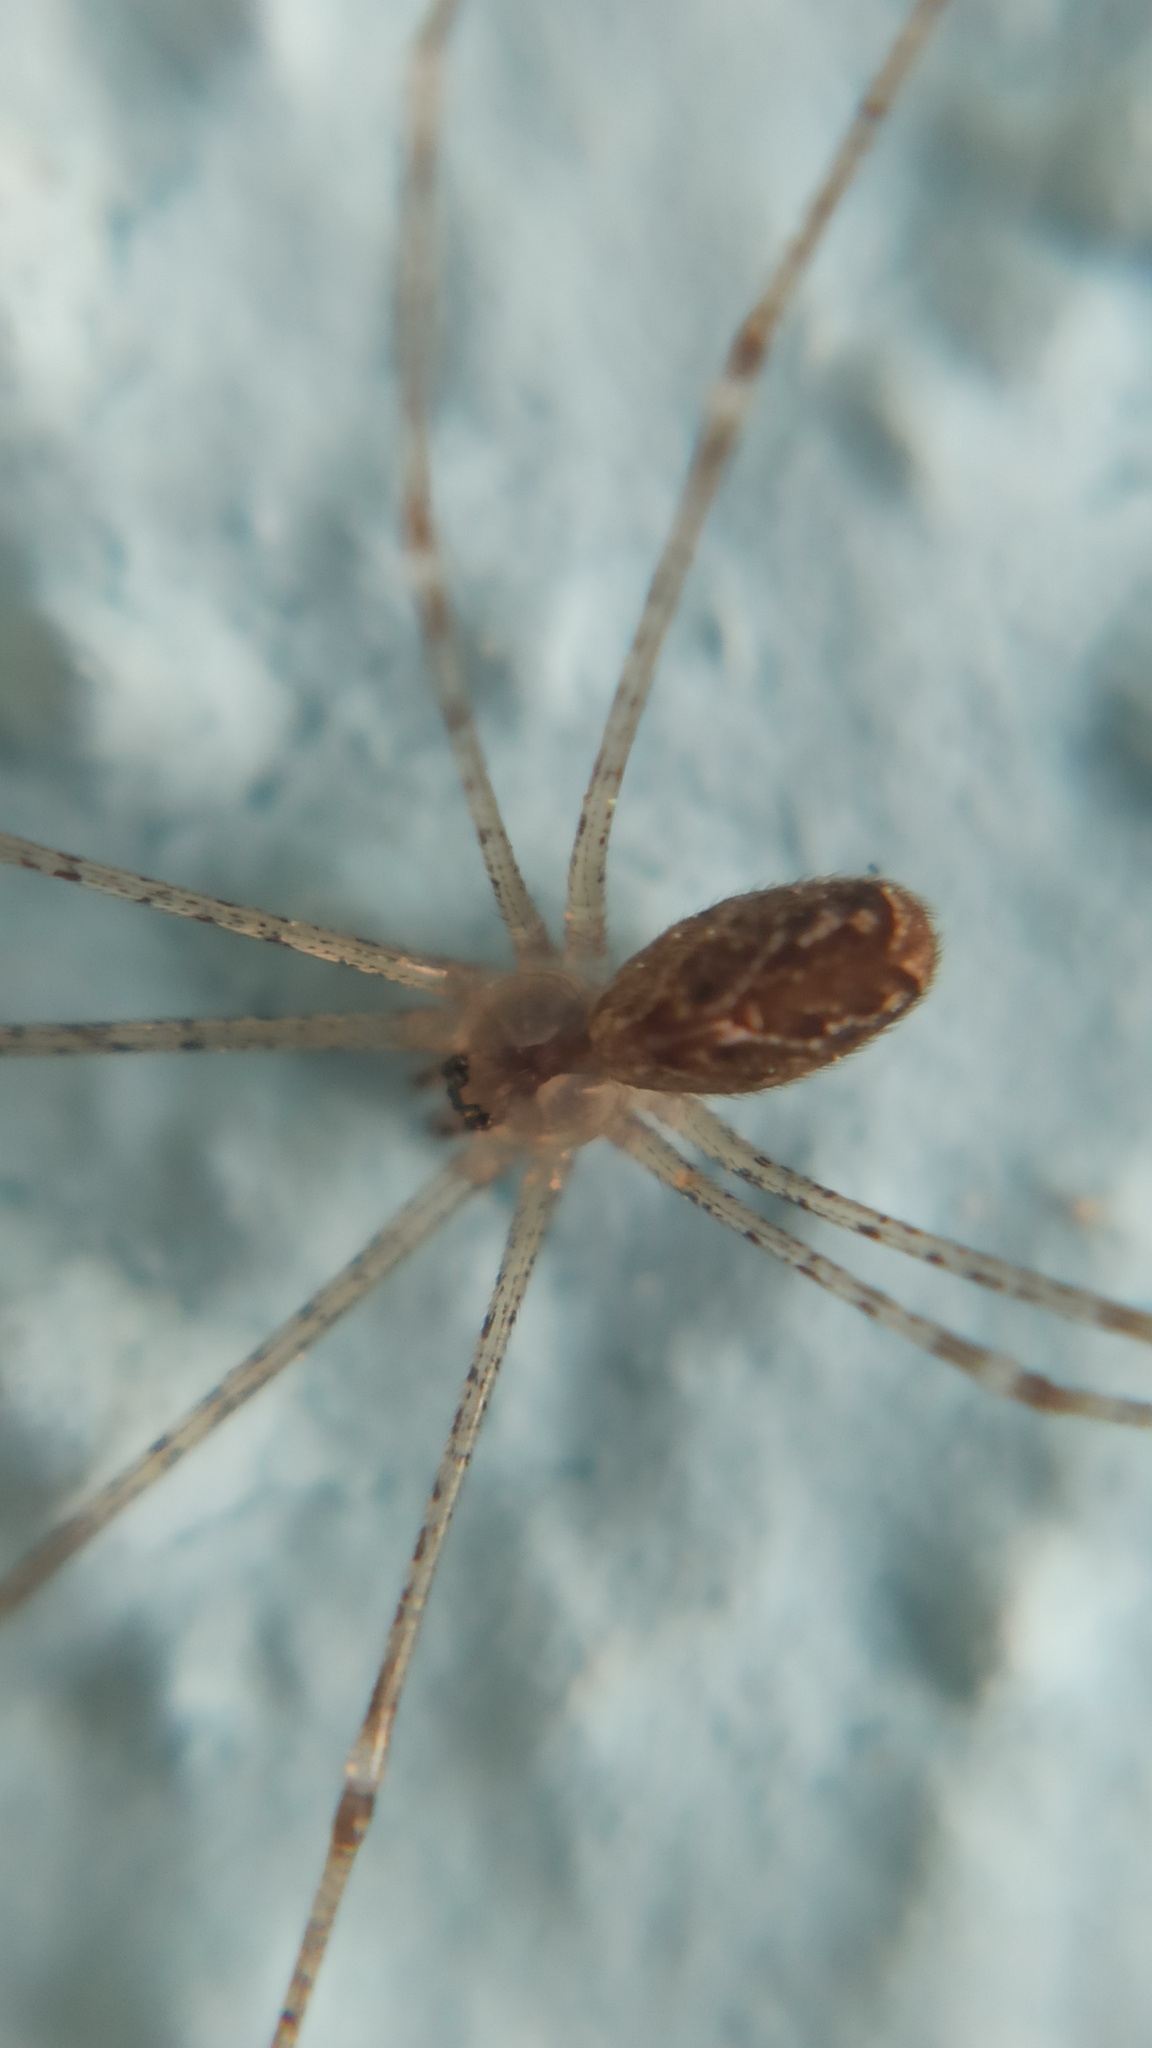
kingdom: Animalia
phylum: Arthropoda
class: Arachnida
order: Araneae
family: Pholcidae
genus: Holocnemus
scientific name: Holocnemus pluchei
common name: Marbled cellar spider
